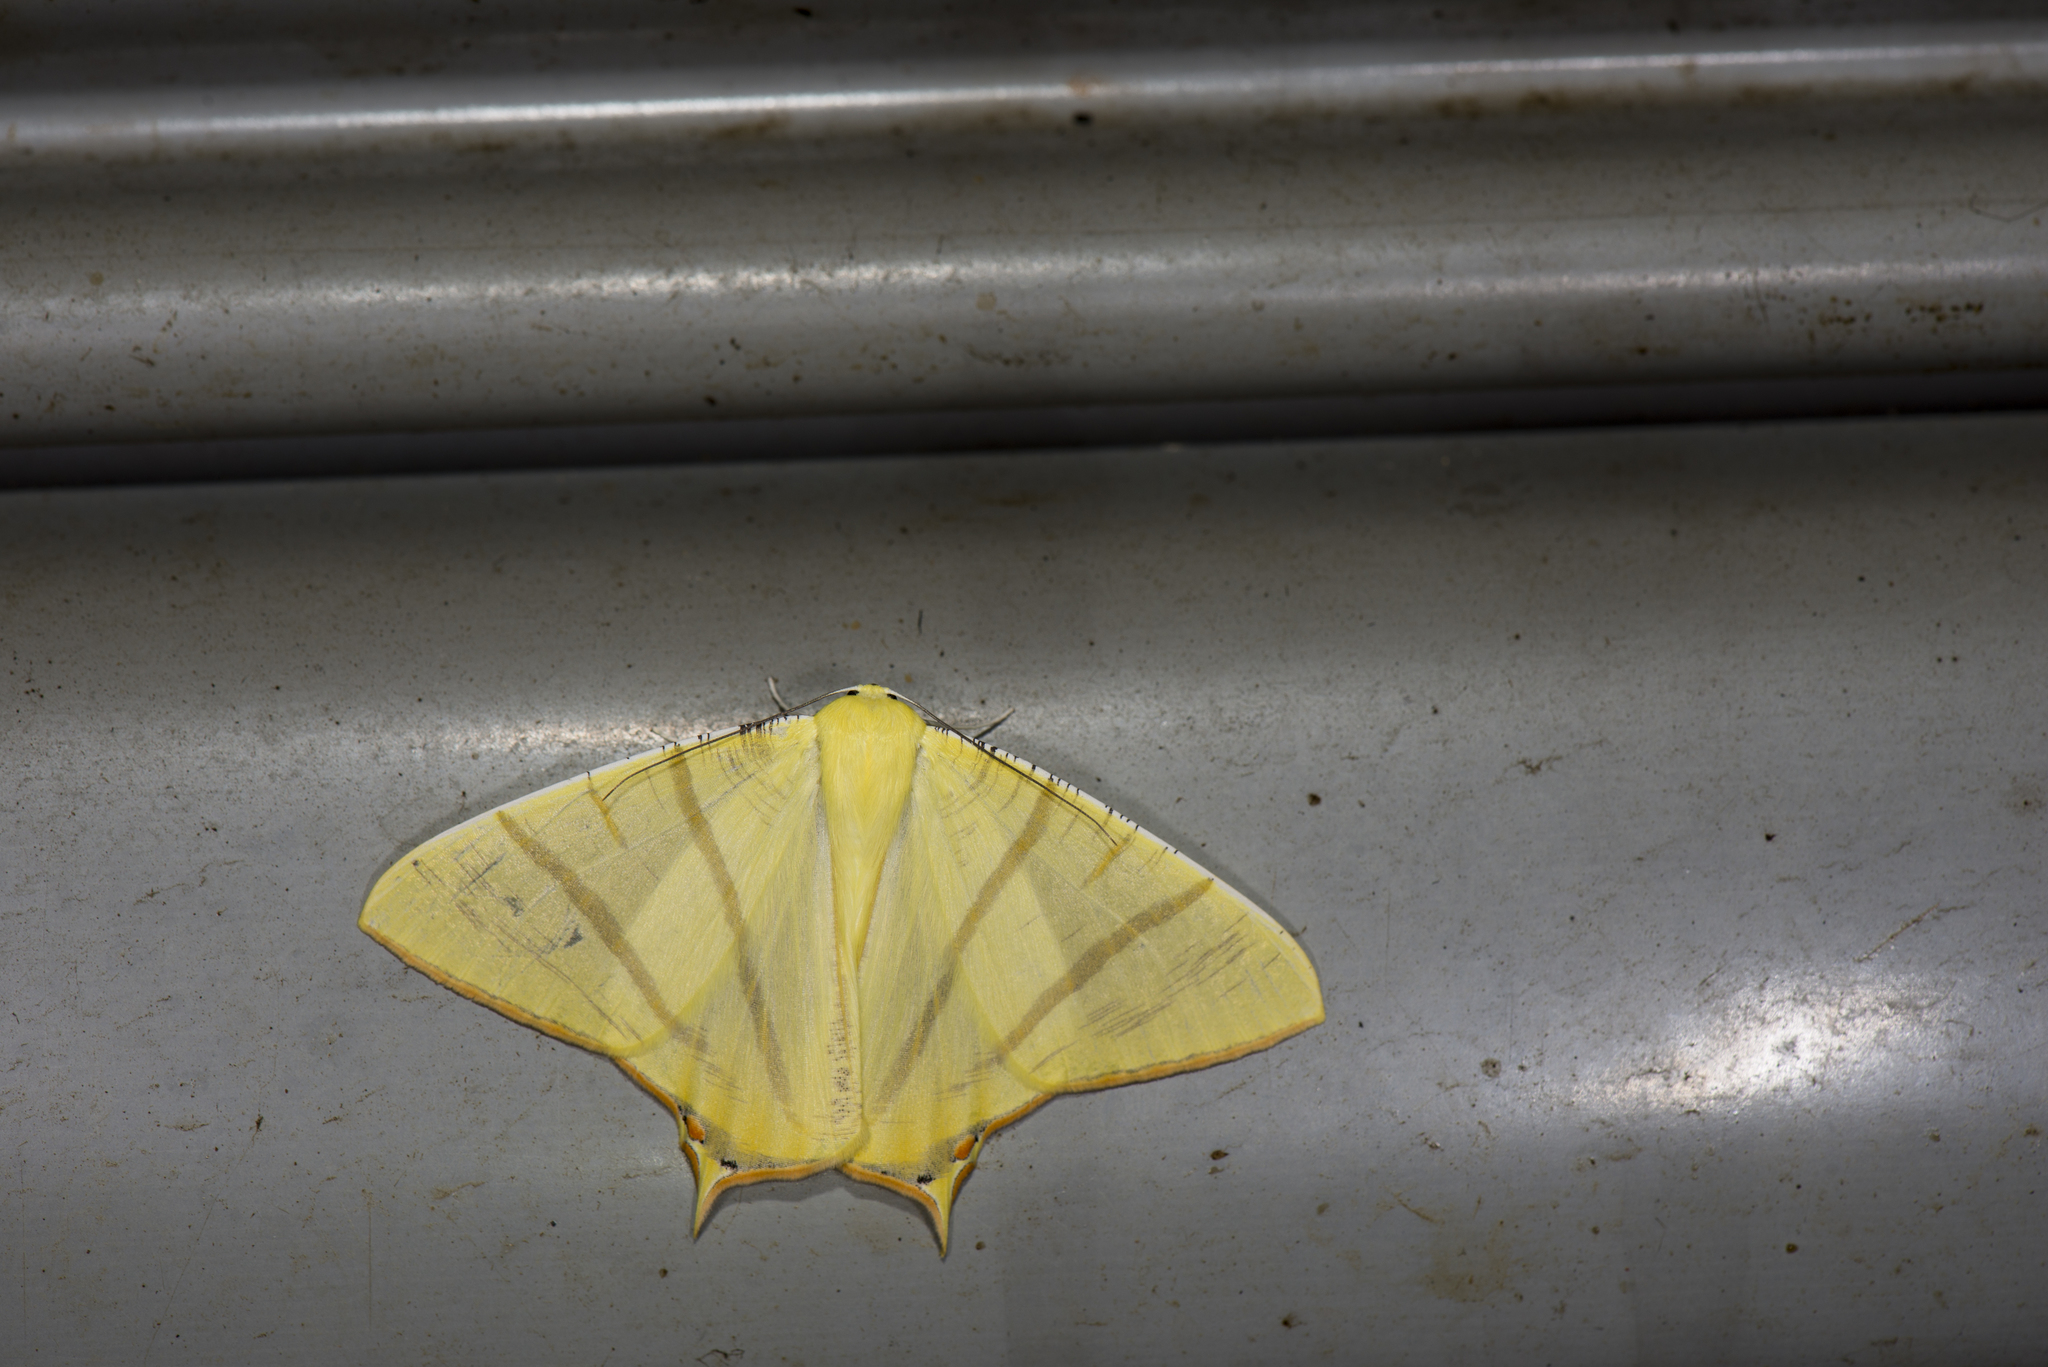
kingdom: Animalia
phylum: Arthropoda
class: Insecta
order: Lepidoptera
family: Geometridae
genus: Ourapteryx
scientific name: Ourapteryx sciticaudaria
